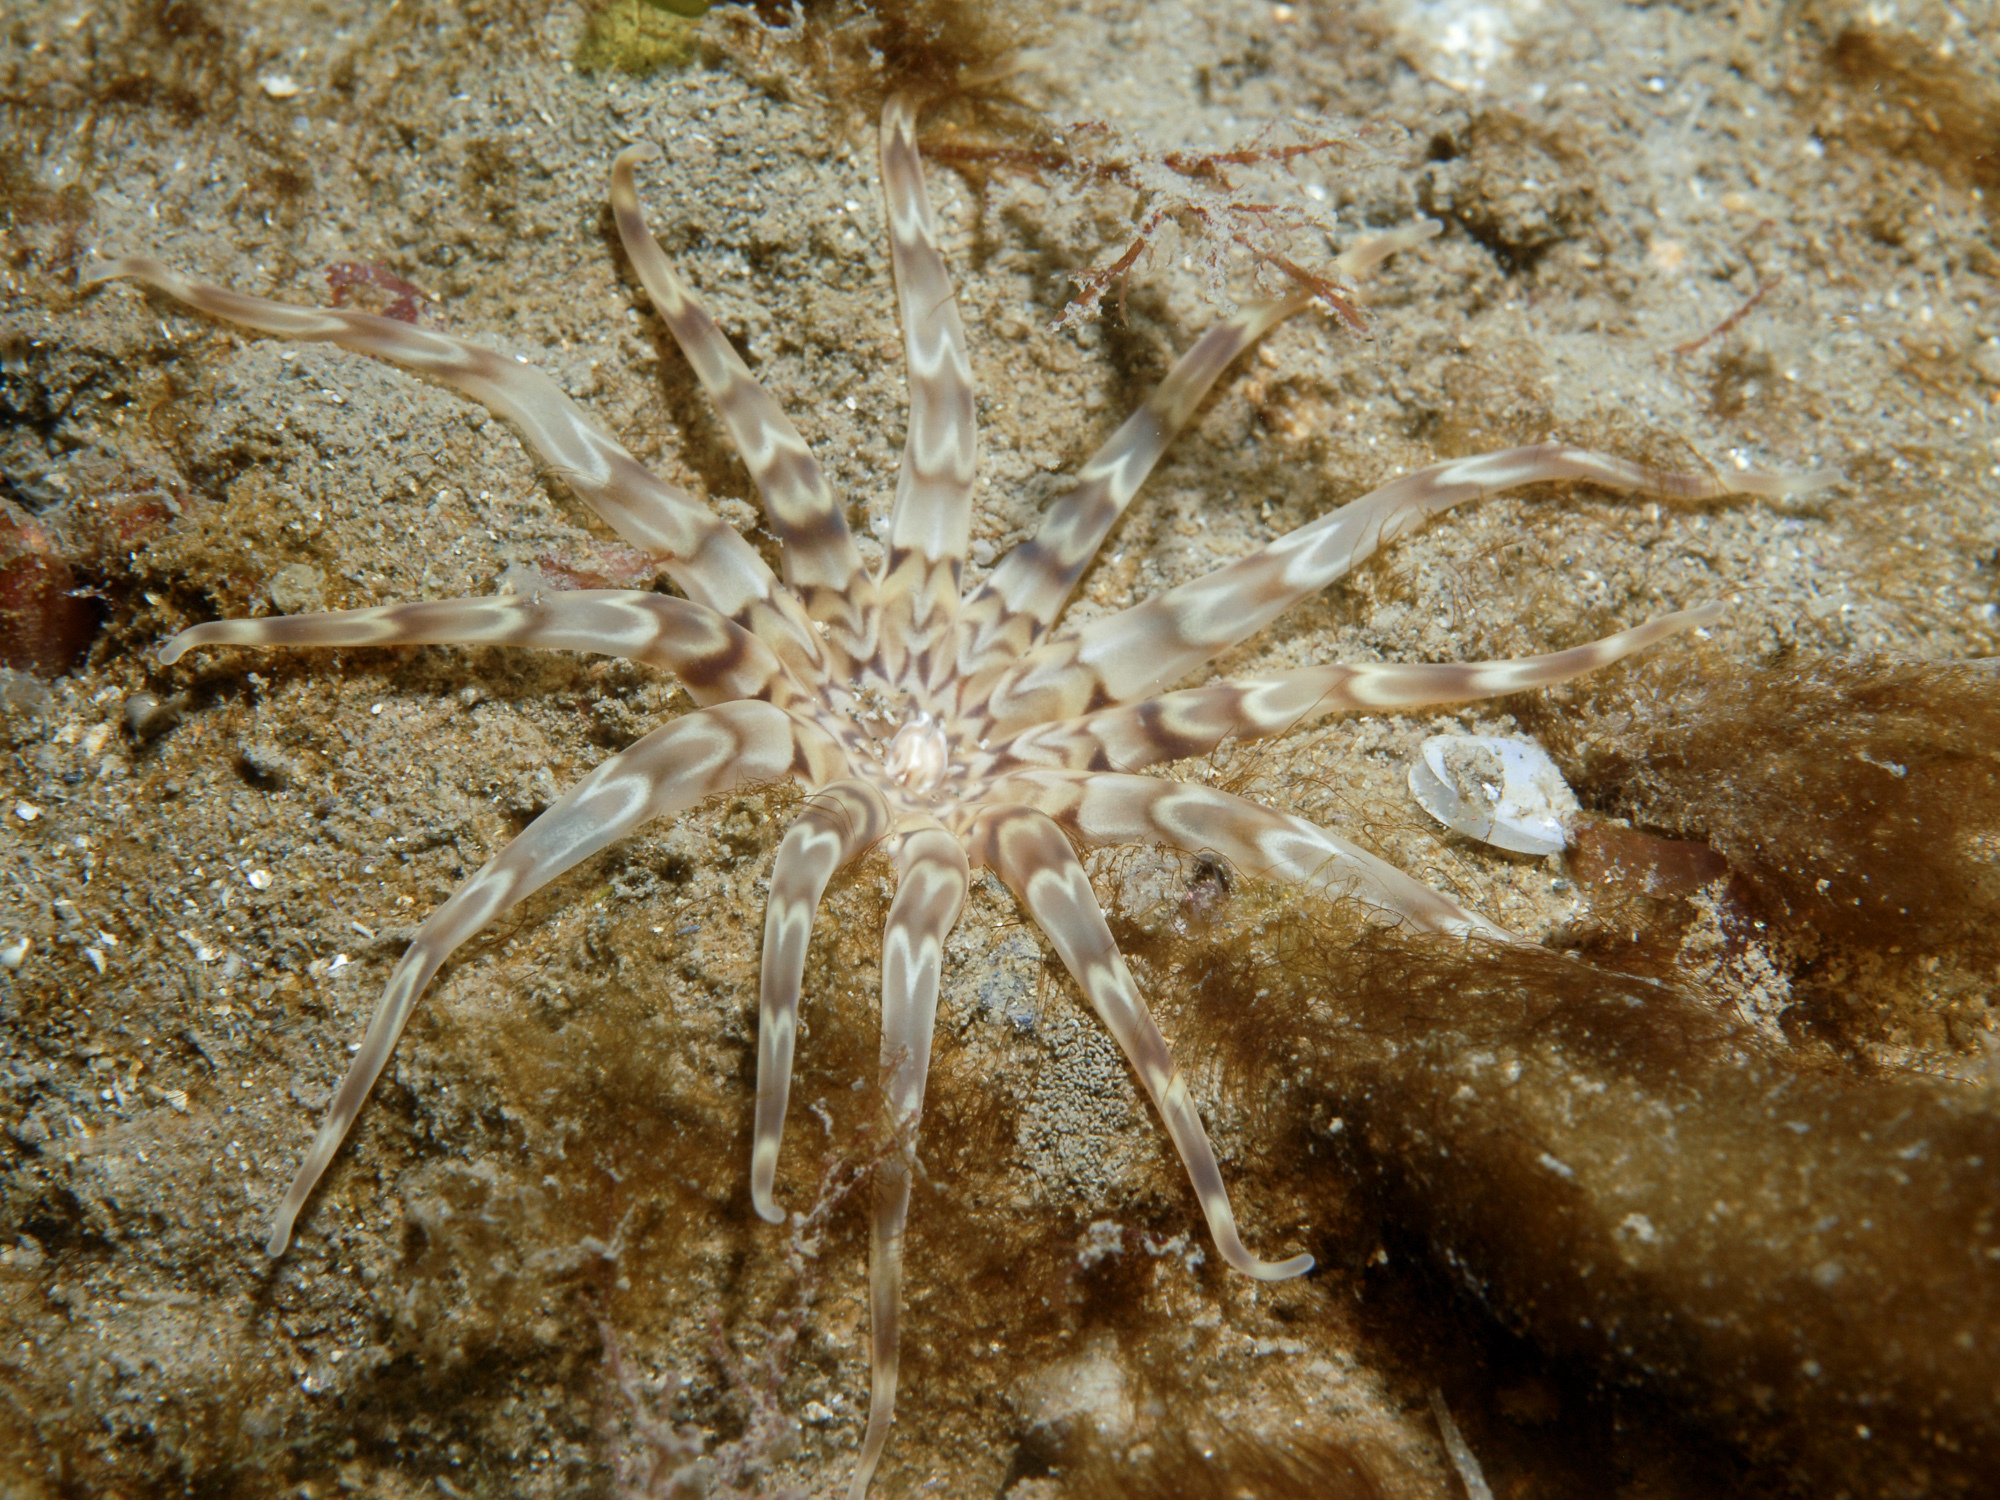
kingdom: Animalia
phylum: Cnidaria
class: Anthozoa
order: Actiniaria
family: Peachiidae
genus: Peachia
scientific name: Peachia cylindrica
